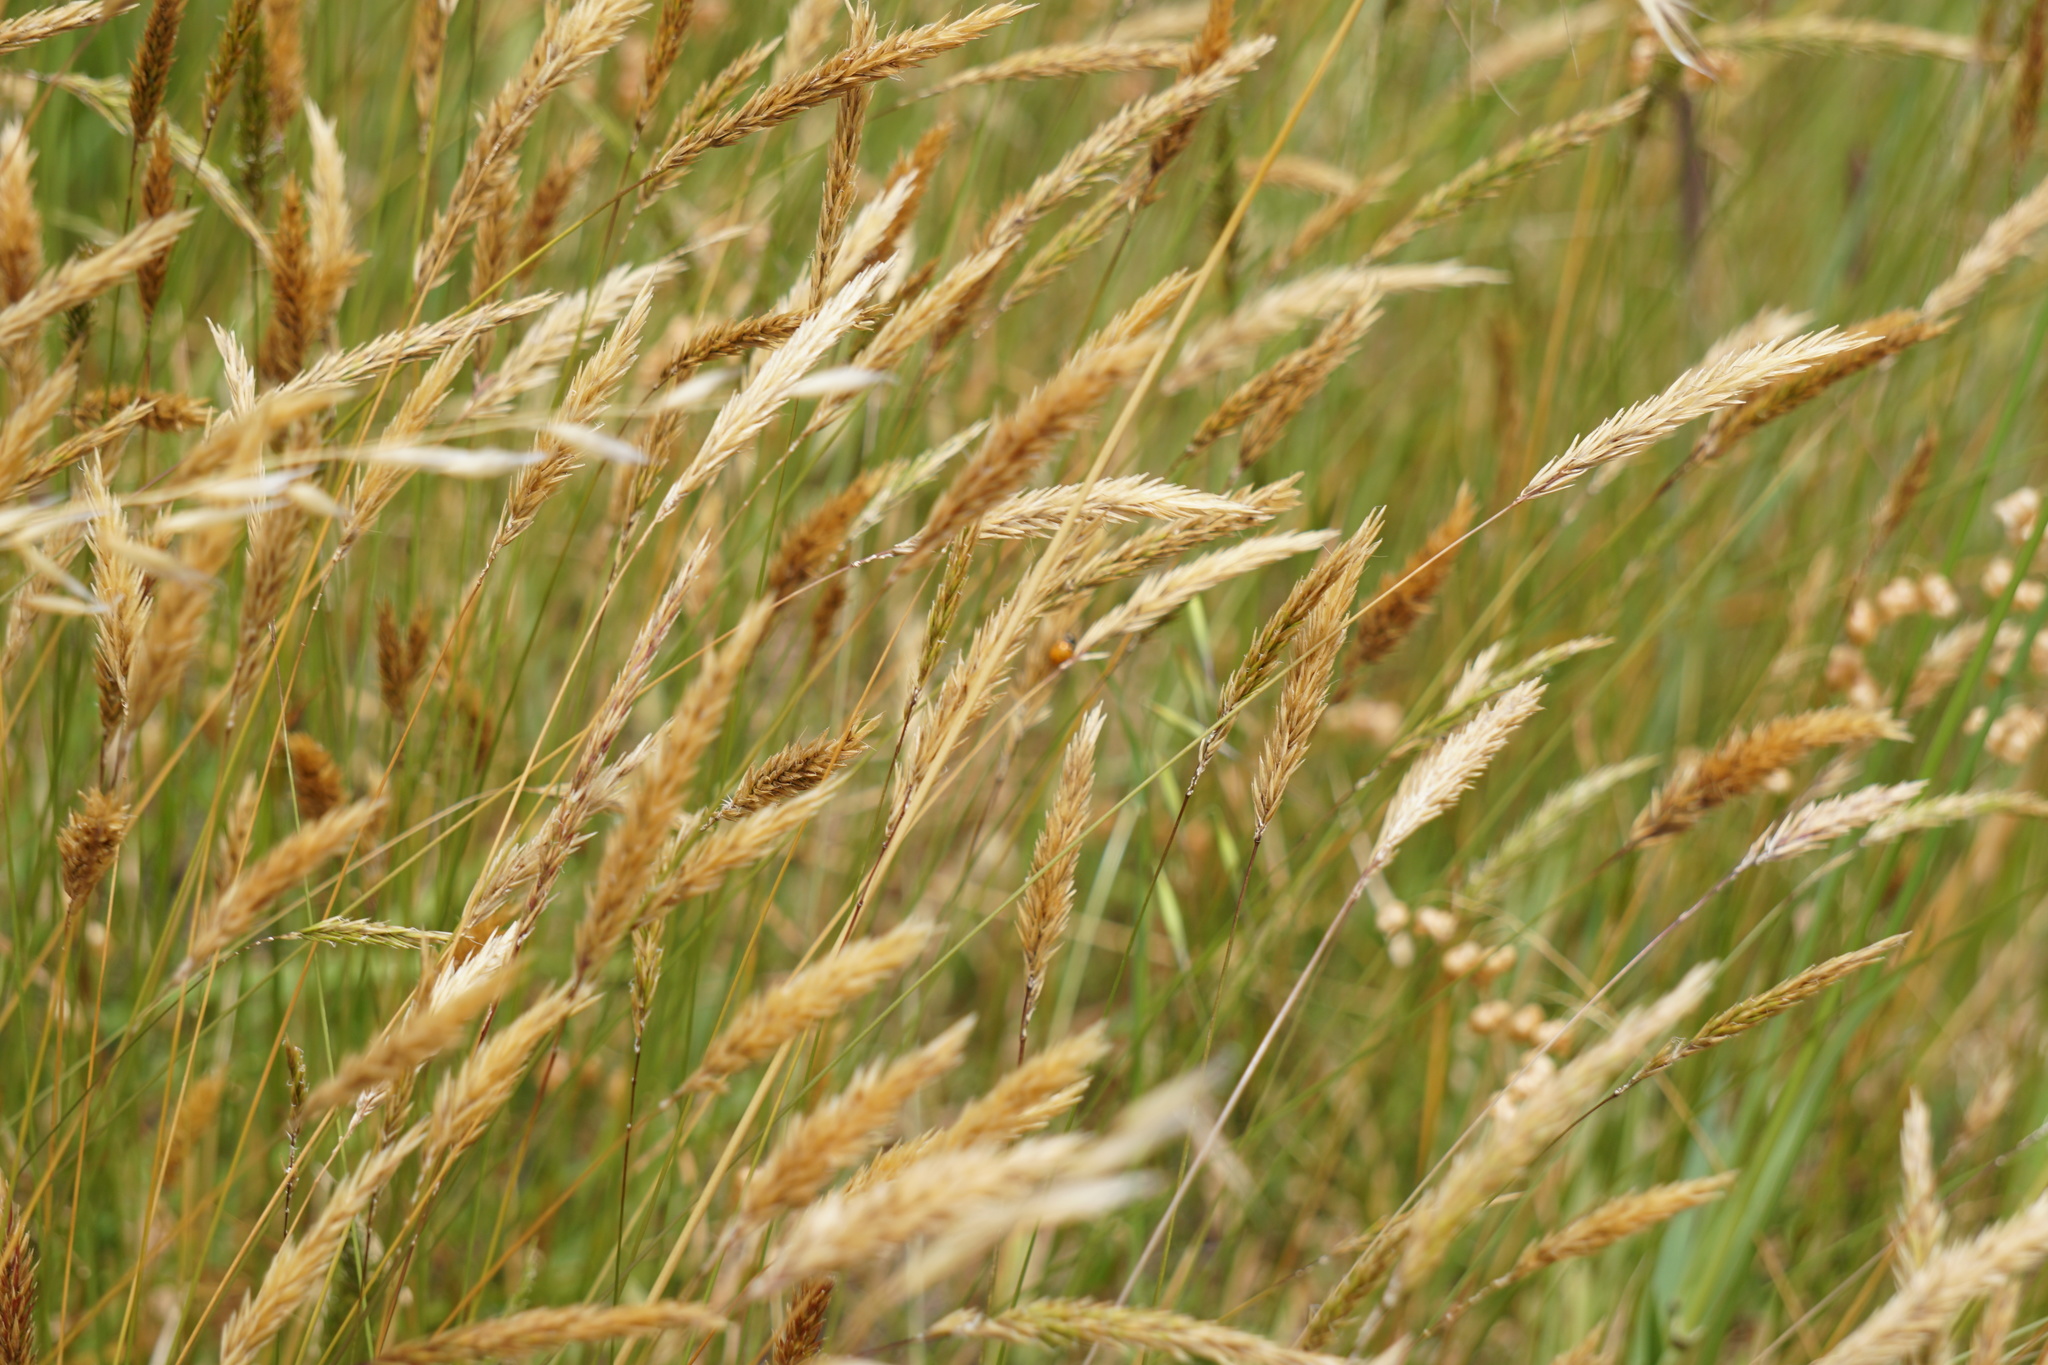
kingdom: Plantae
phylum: Tracheophyta
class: Liliopsida
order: Poales
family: Poaceae
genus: Anthoxanthum
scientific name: Anthoxanthum odoratum
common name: Sweet vernalgrass
